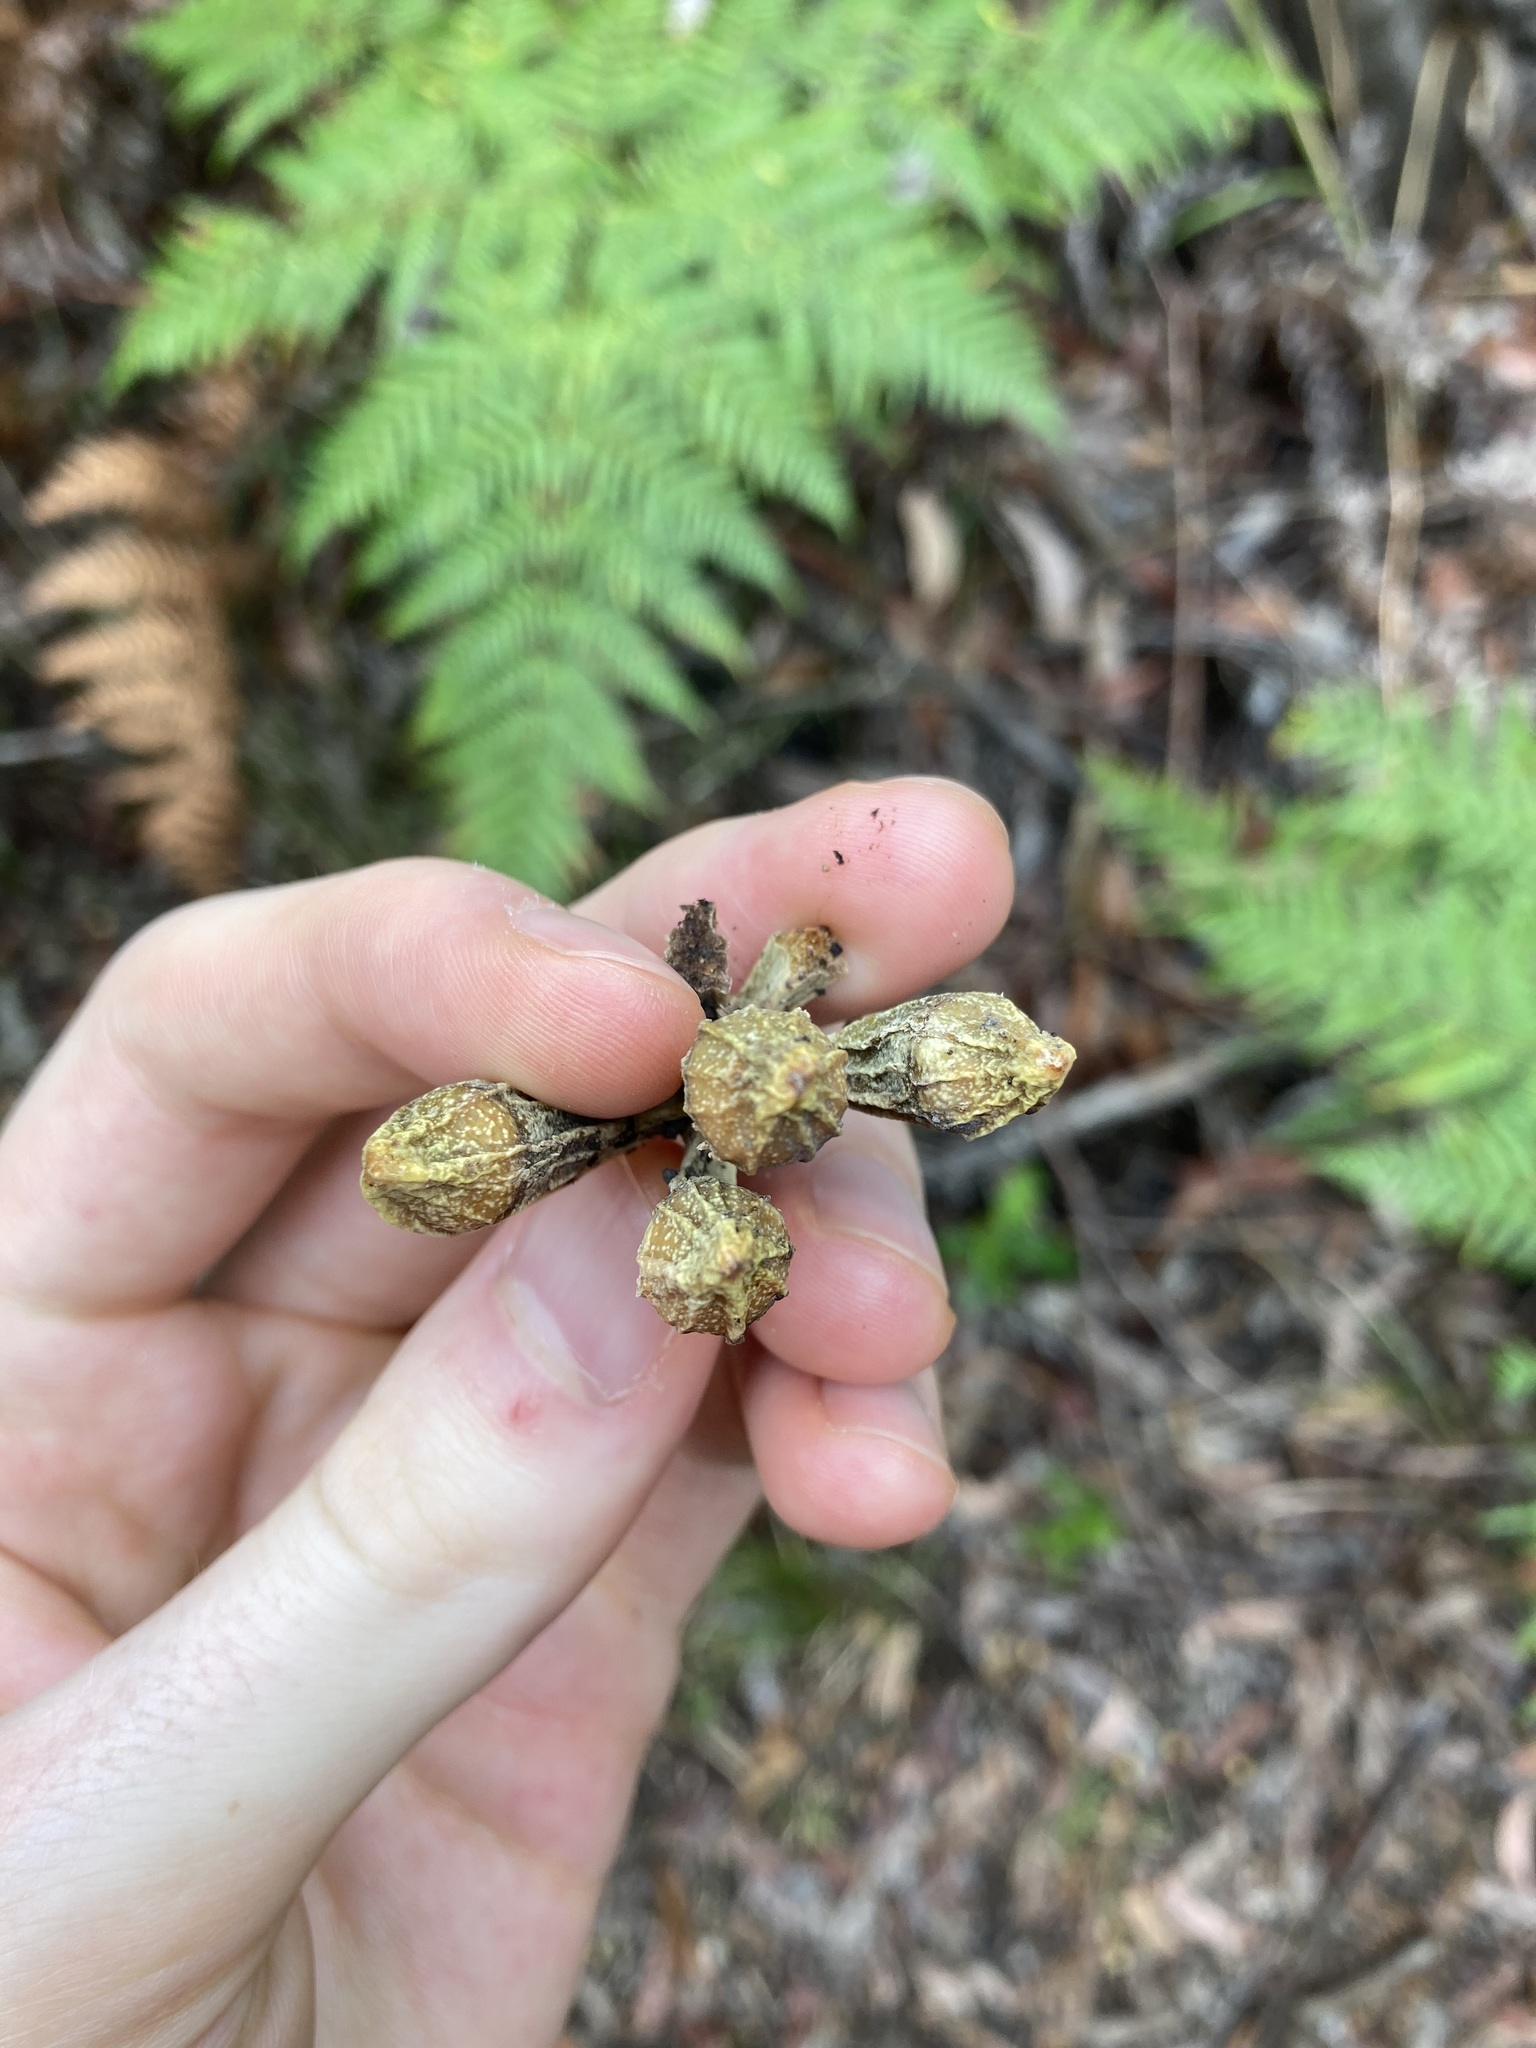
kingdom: Plantae
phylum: Tracheophyta
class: Magnoliopsida
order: Myrtales
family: Myrtaceae
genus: Eucalyptus
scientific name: Eucalyptus planchoniana
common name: Bastard-tallow-wood
